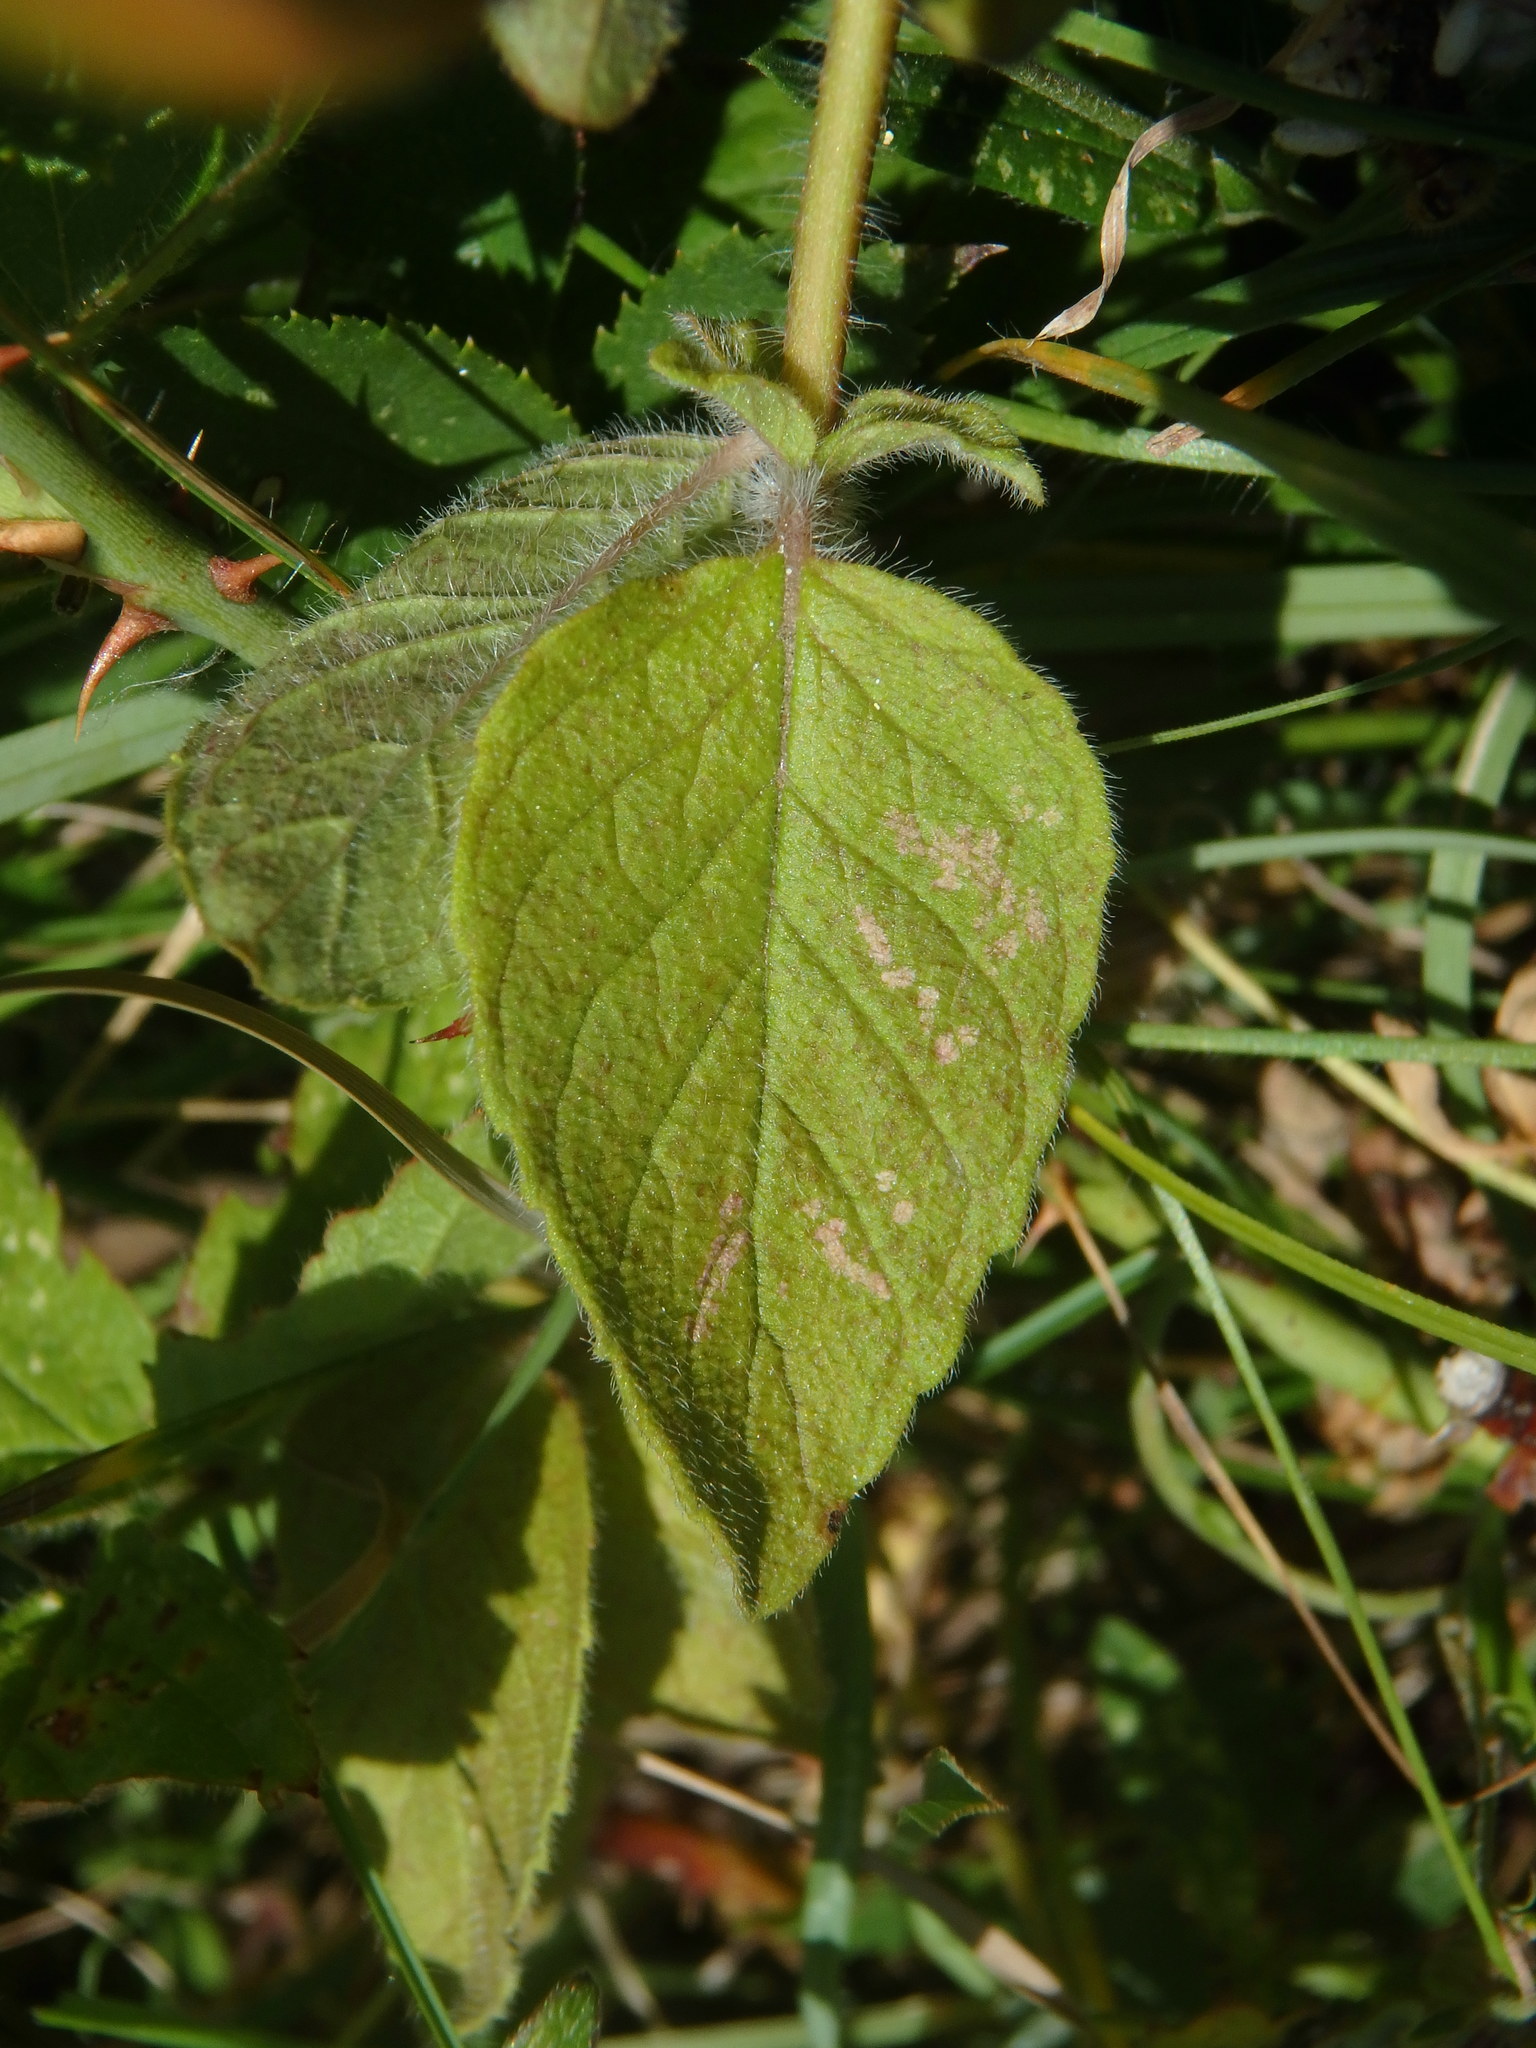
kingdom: Plantae
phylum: Tracheophyta
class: Magnoliopsida
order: Lamiales
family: Lamiaceae
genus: Clinopodium
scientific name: Clinopodium vulgare
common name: Wild basil
